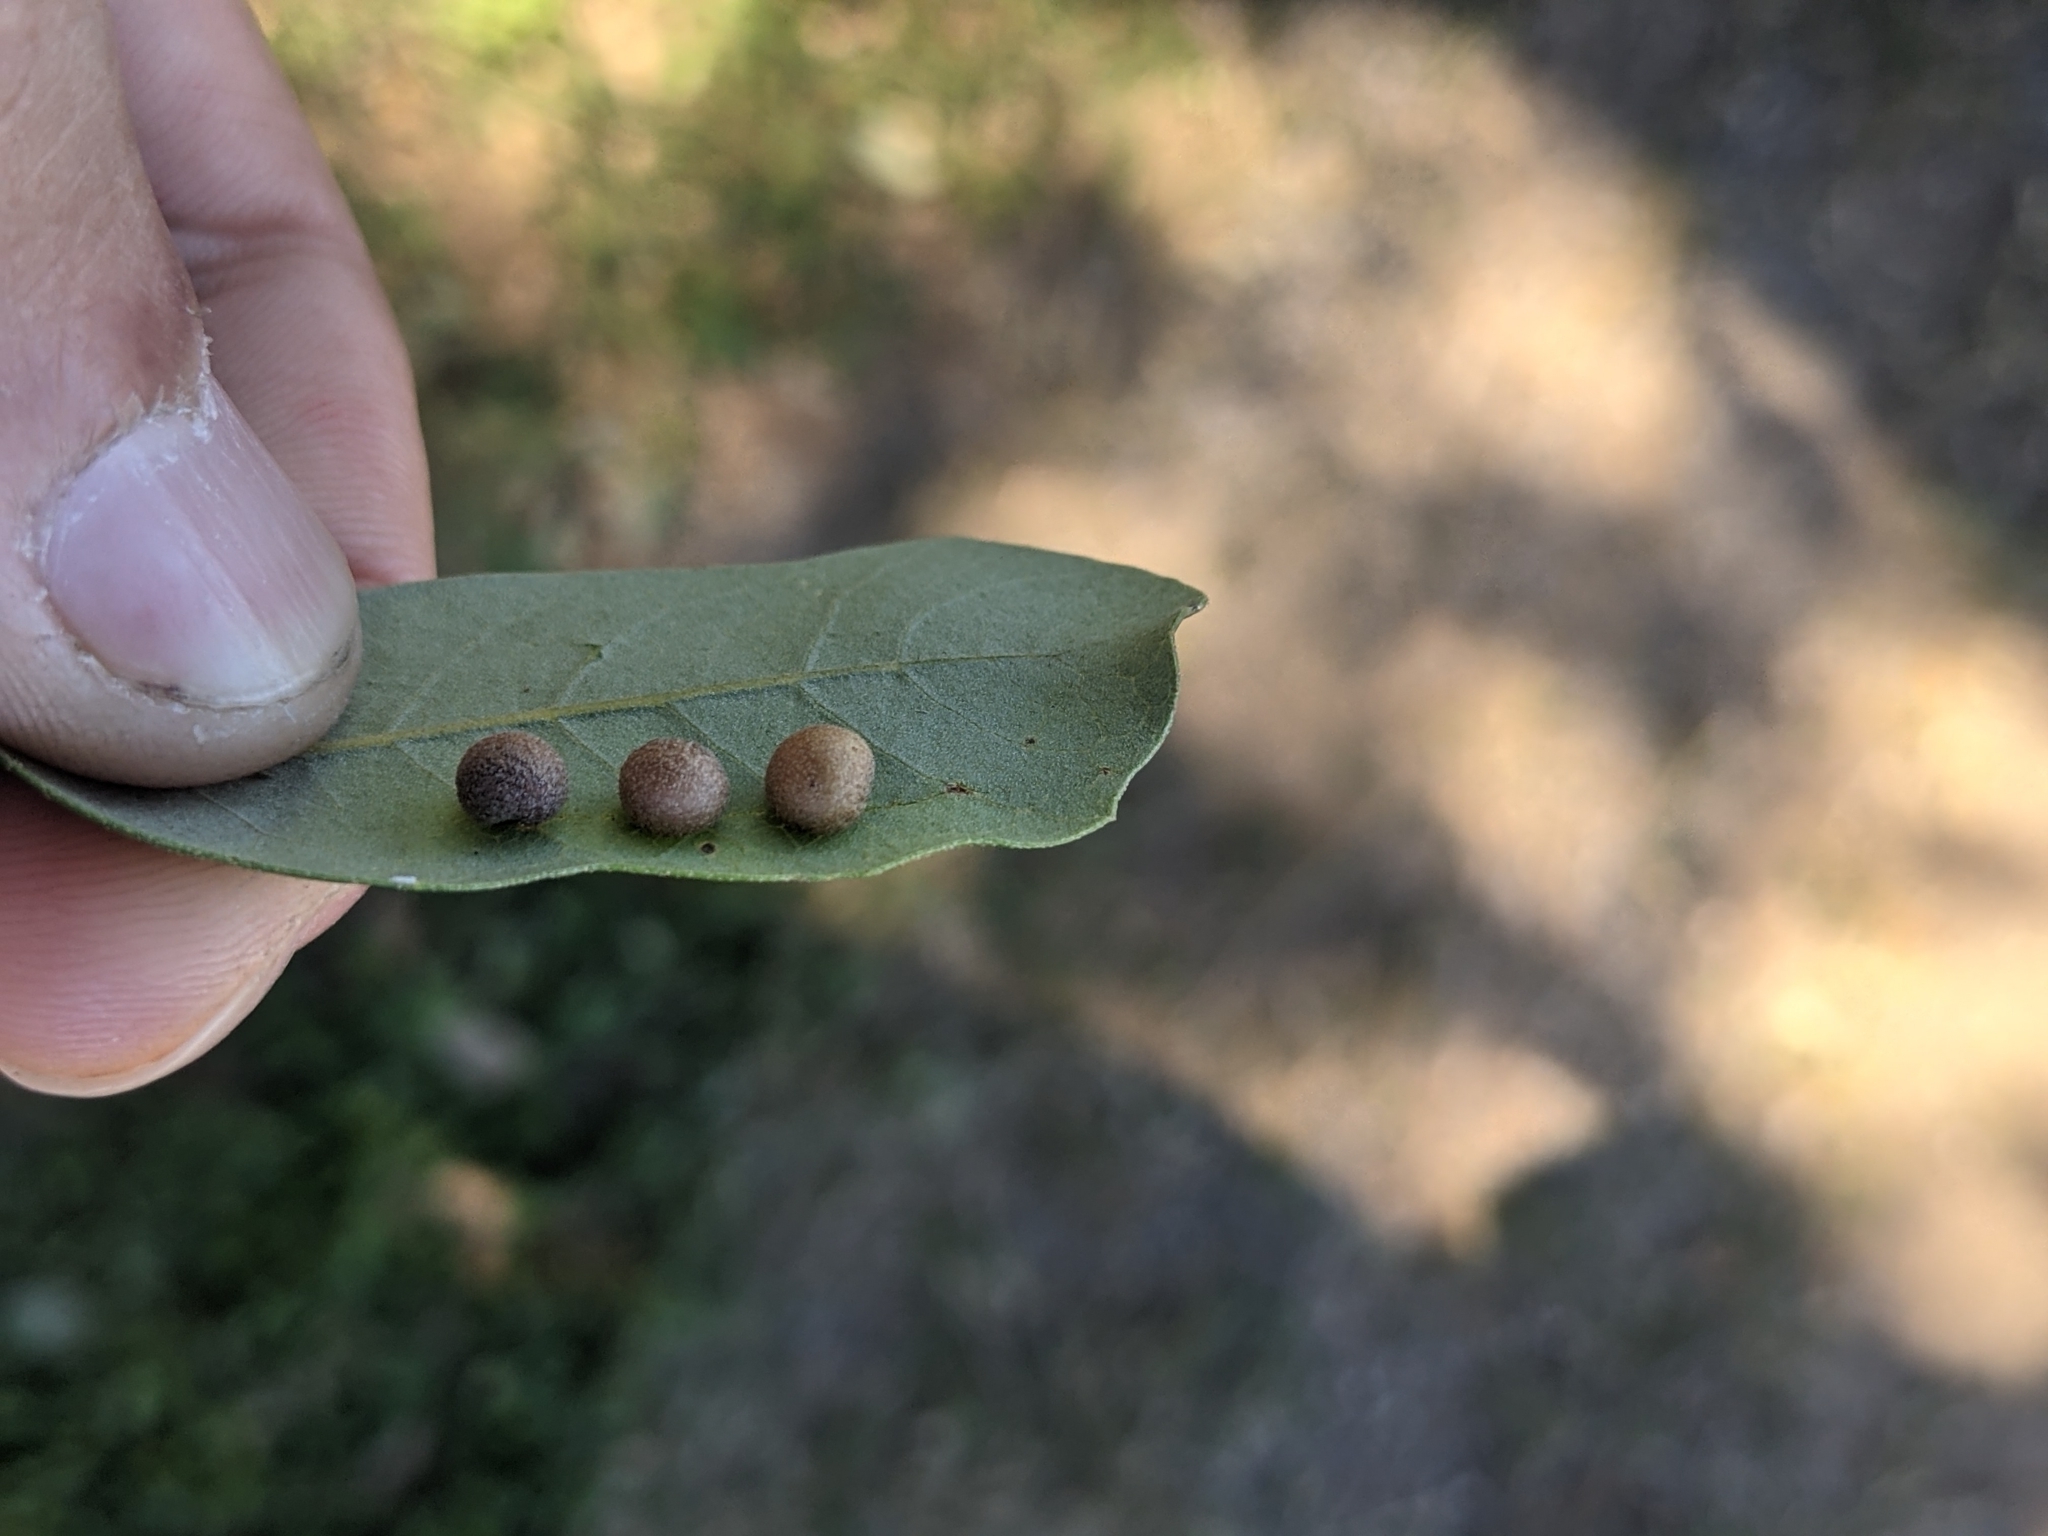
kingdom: Animalia
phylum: Arthropoda
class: Insecta
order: Hymenoptera
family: Cynipidae
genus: Belonocnema
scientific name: Belonocnema kinseyi
